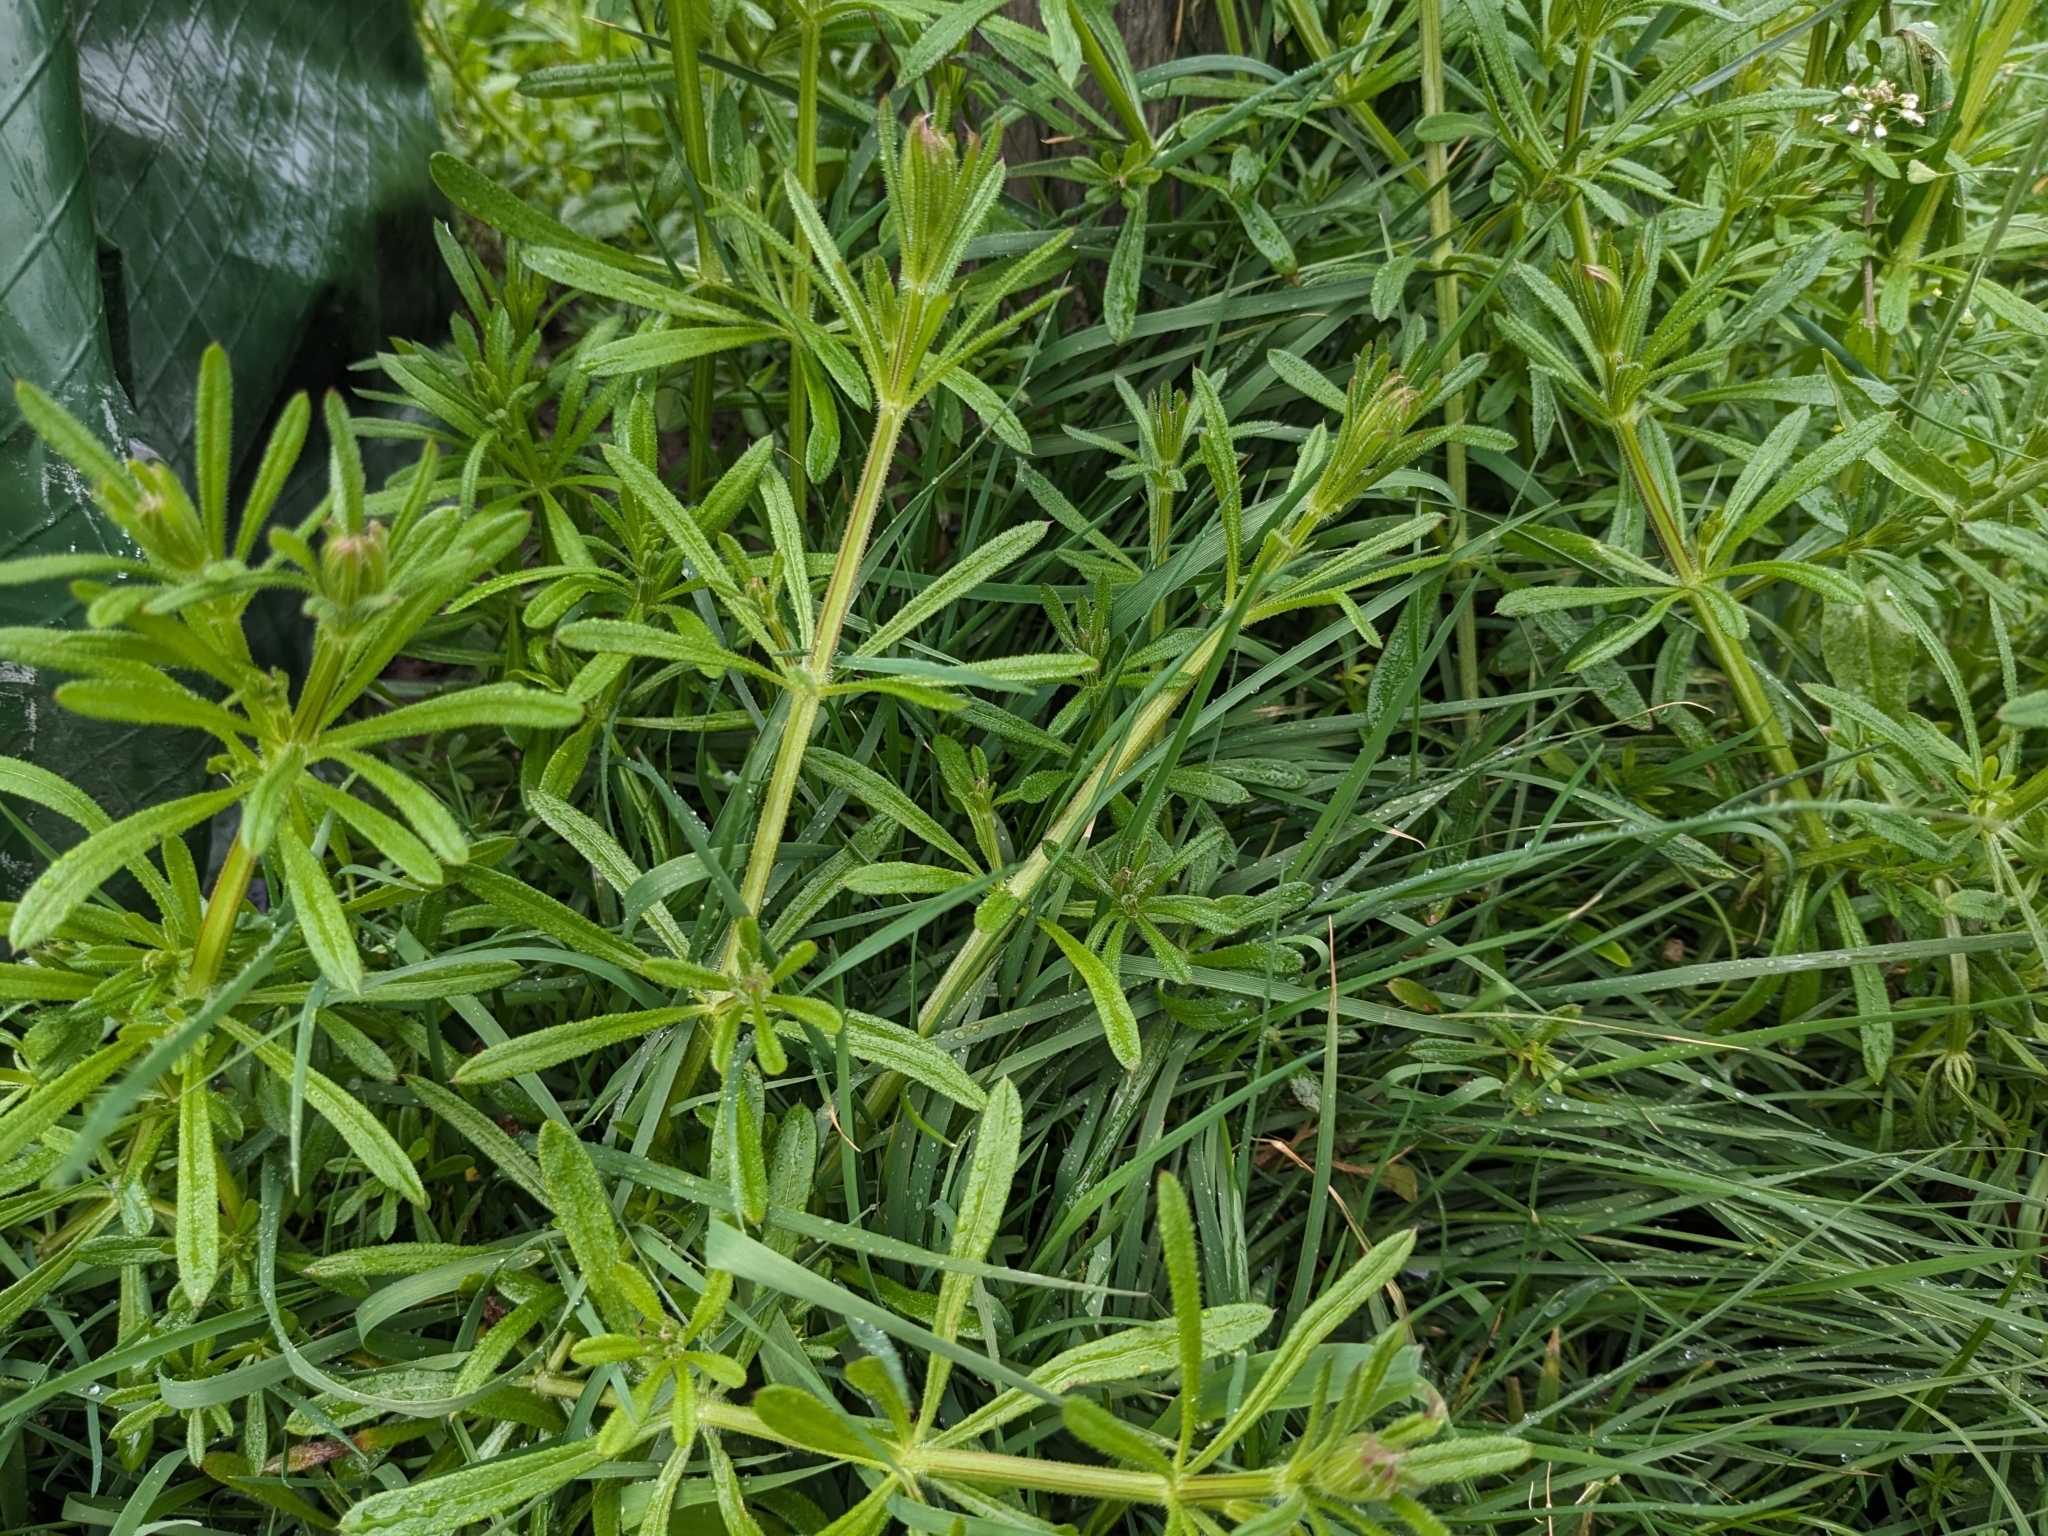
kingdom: Plantae
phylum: Tracheophyta
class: Magnoliopsida
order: Gentianales
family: Rubiaceae
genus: Galium
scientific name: Galium aparine
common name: Cleavers
